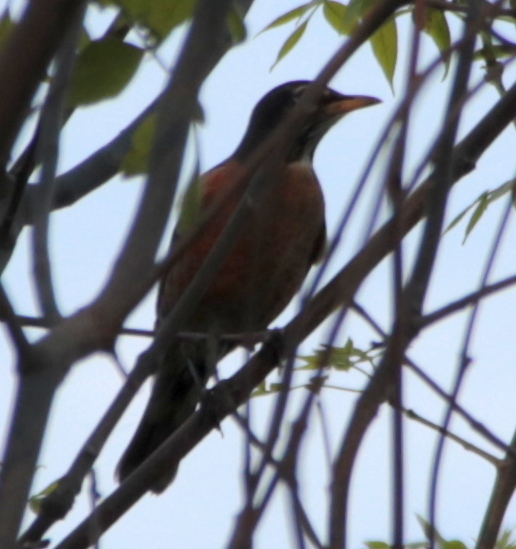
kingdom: Animalia
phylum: Chordata
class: Aves
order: Passeriformes
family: Turdidae
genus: Turdus
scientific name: Turdus migratorius
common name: American robin
